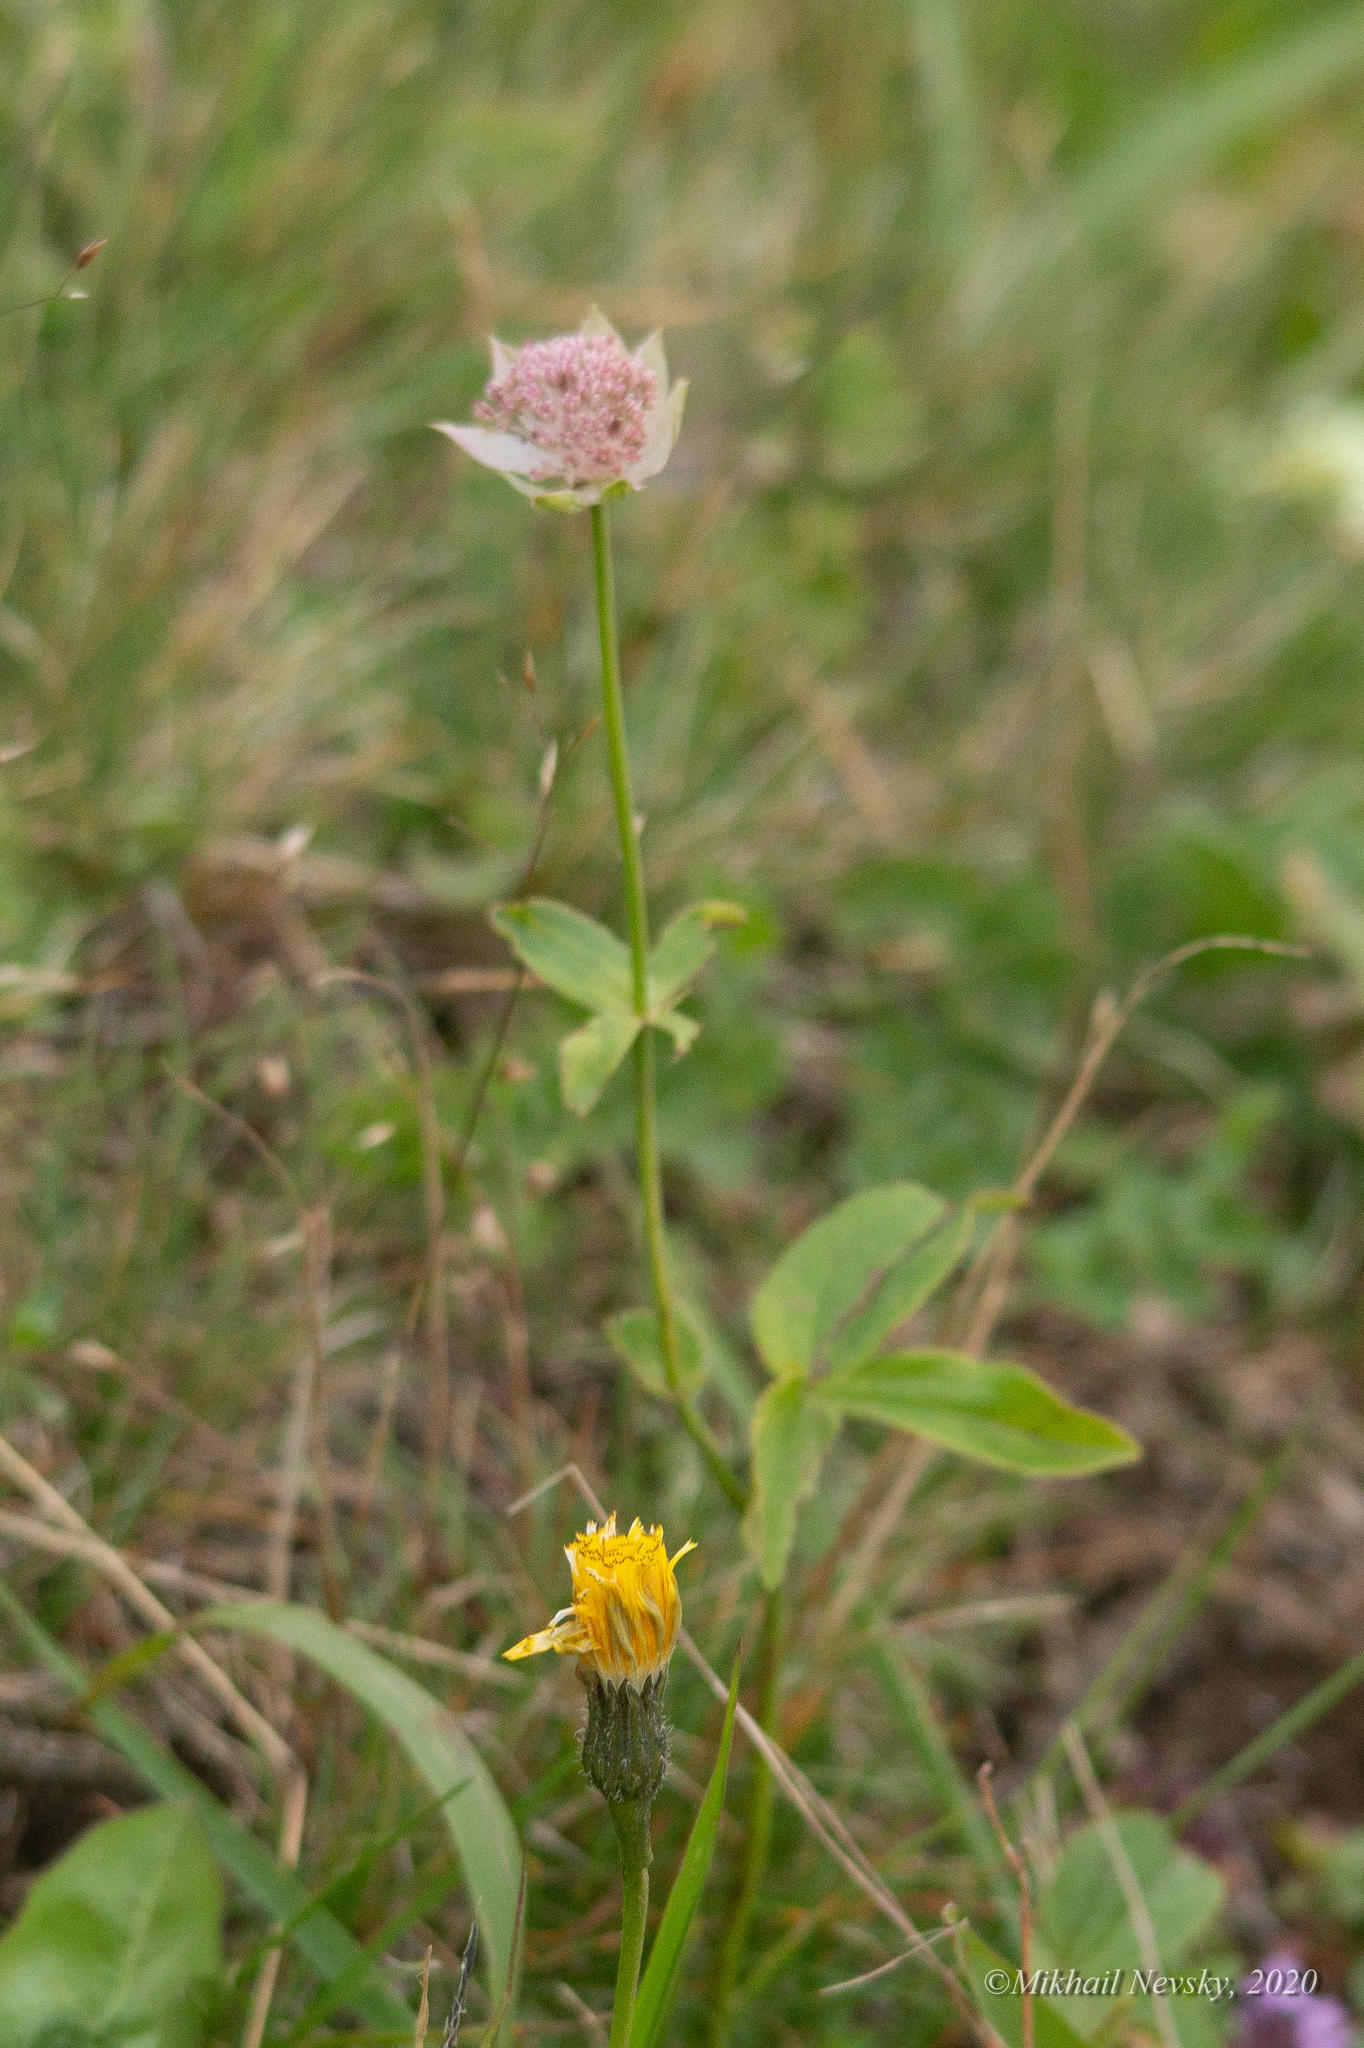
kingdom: Plantae
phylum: Tracheophyta
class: Magnoliopsida
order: Apiales
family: Apiaceae
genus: Astrantia
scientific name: Astrantia maxima
